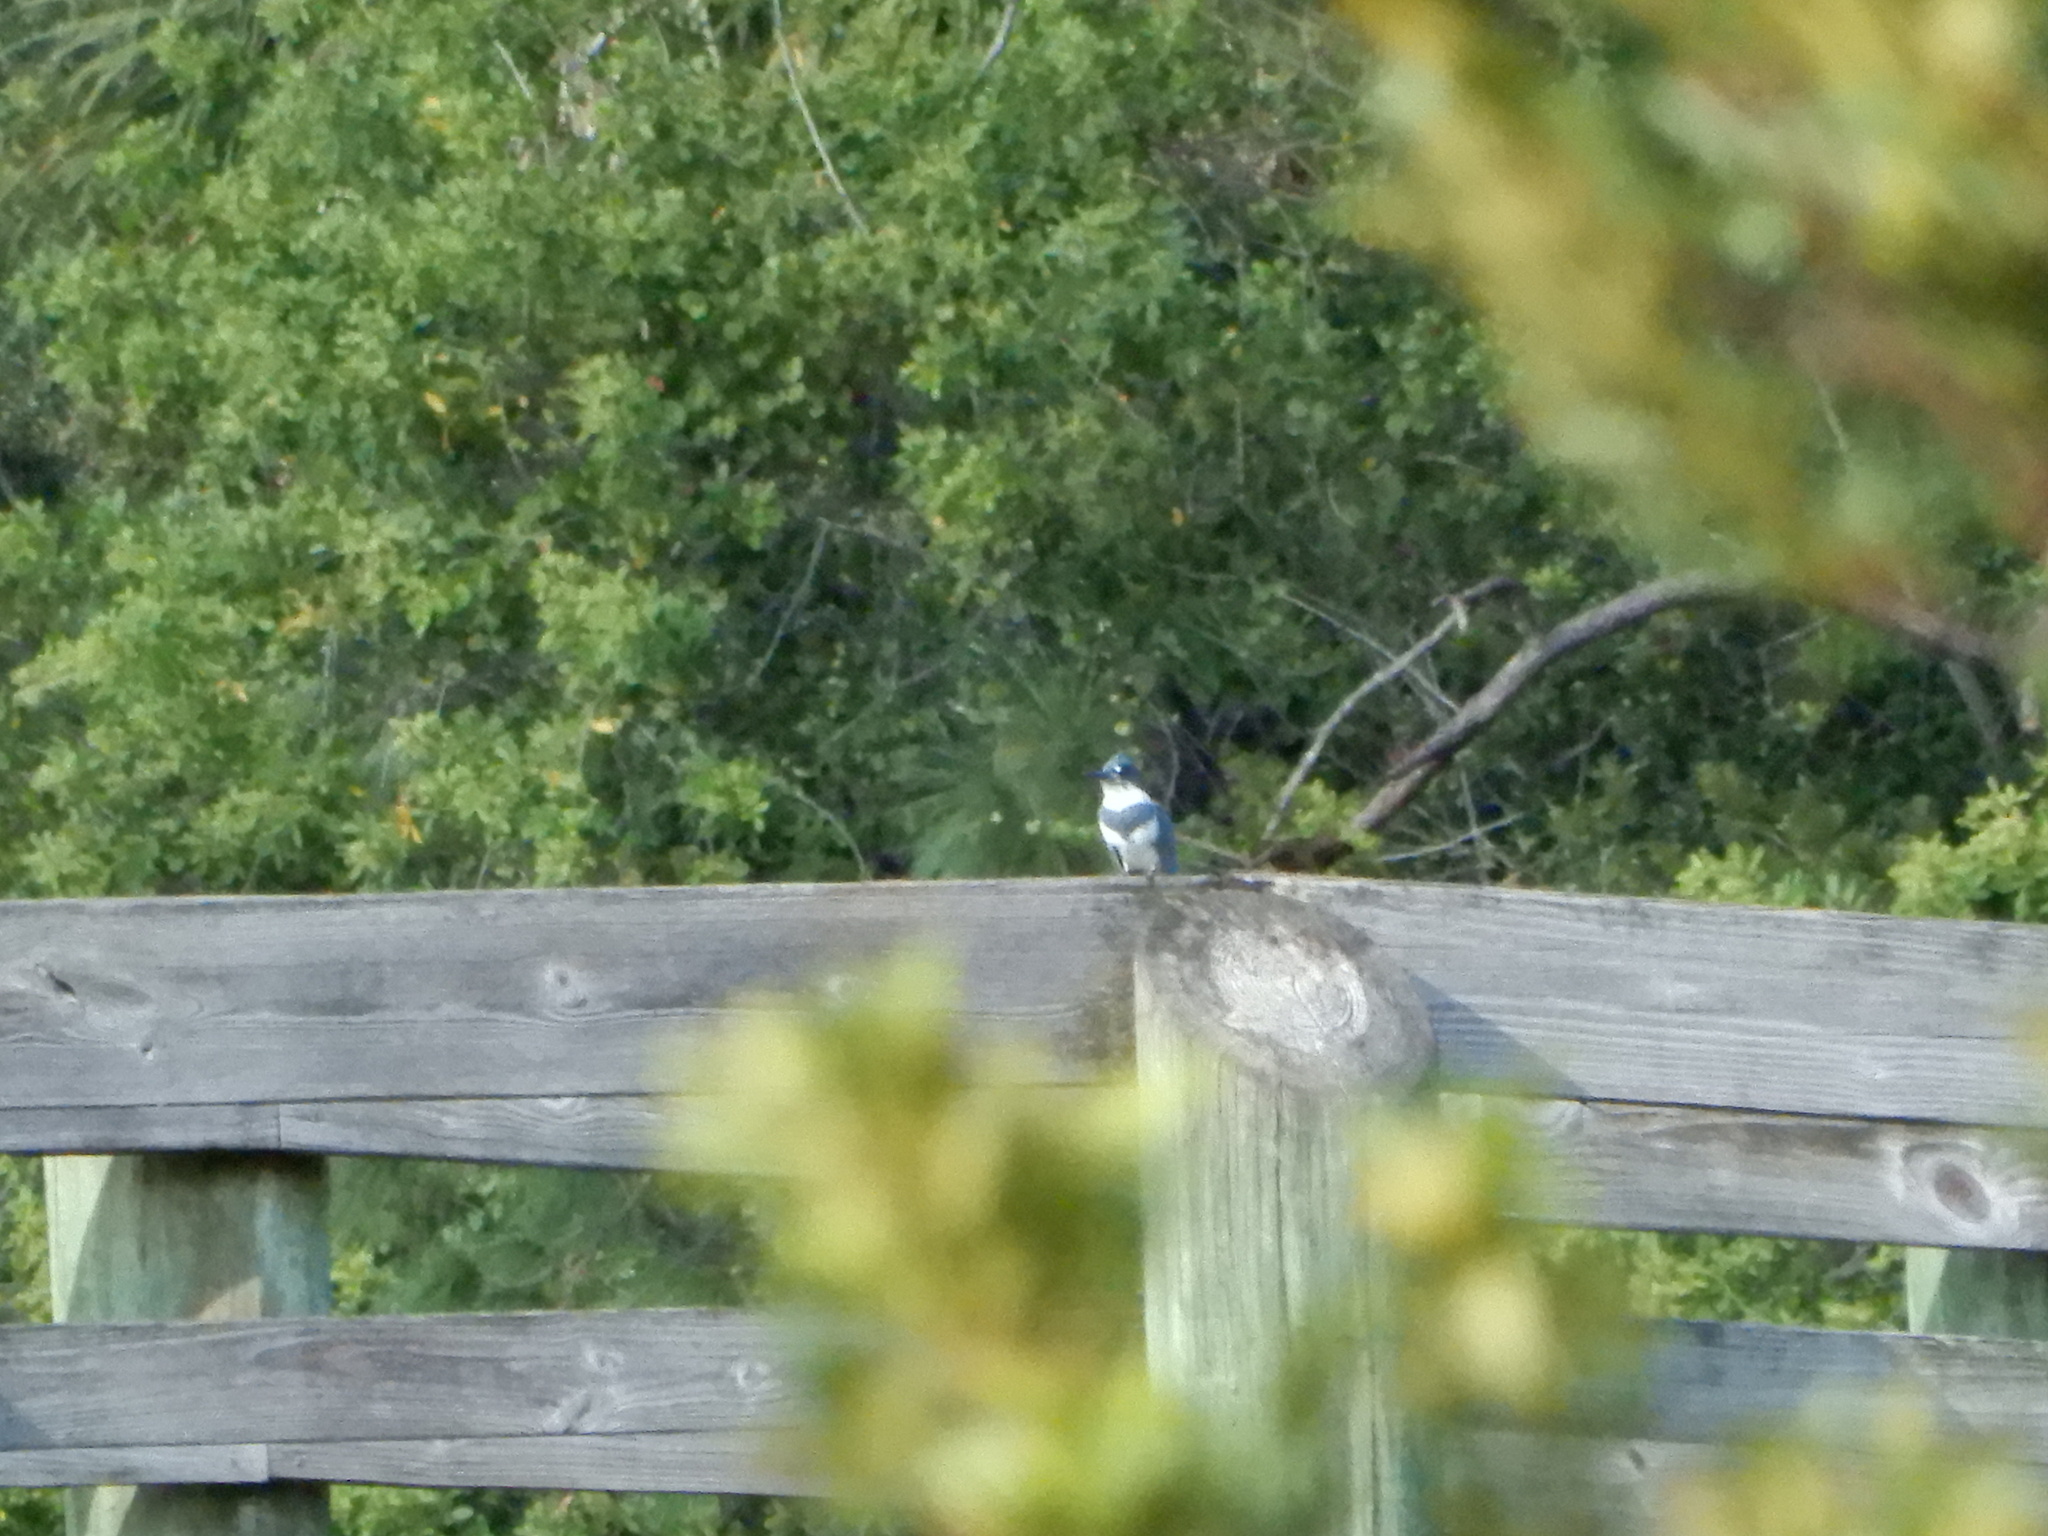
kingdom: Animalia
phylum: Chordata
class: Aves
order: Coraciiformes
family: Alcedinidae
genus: Megaceryle
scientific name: Megaceryle alcyon
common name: Belted kingfisher
